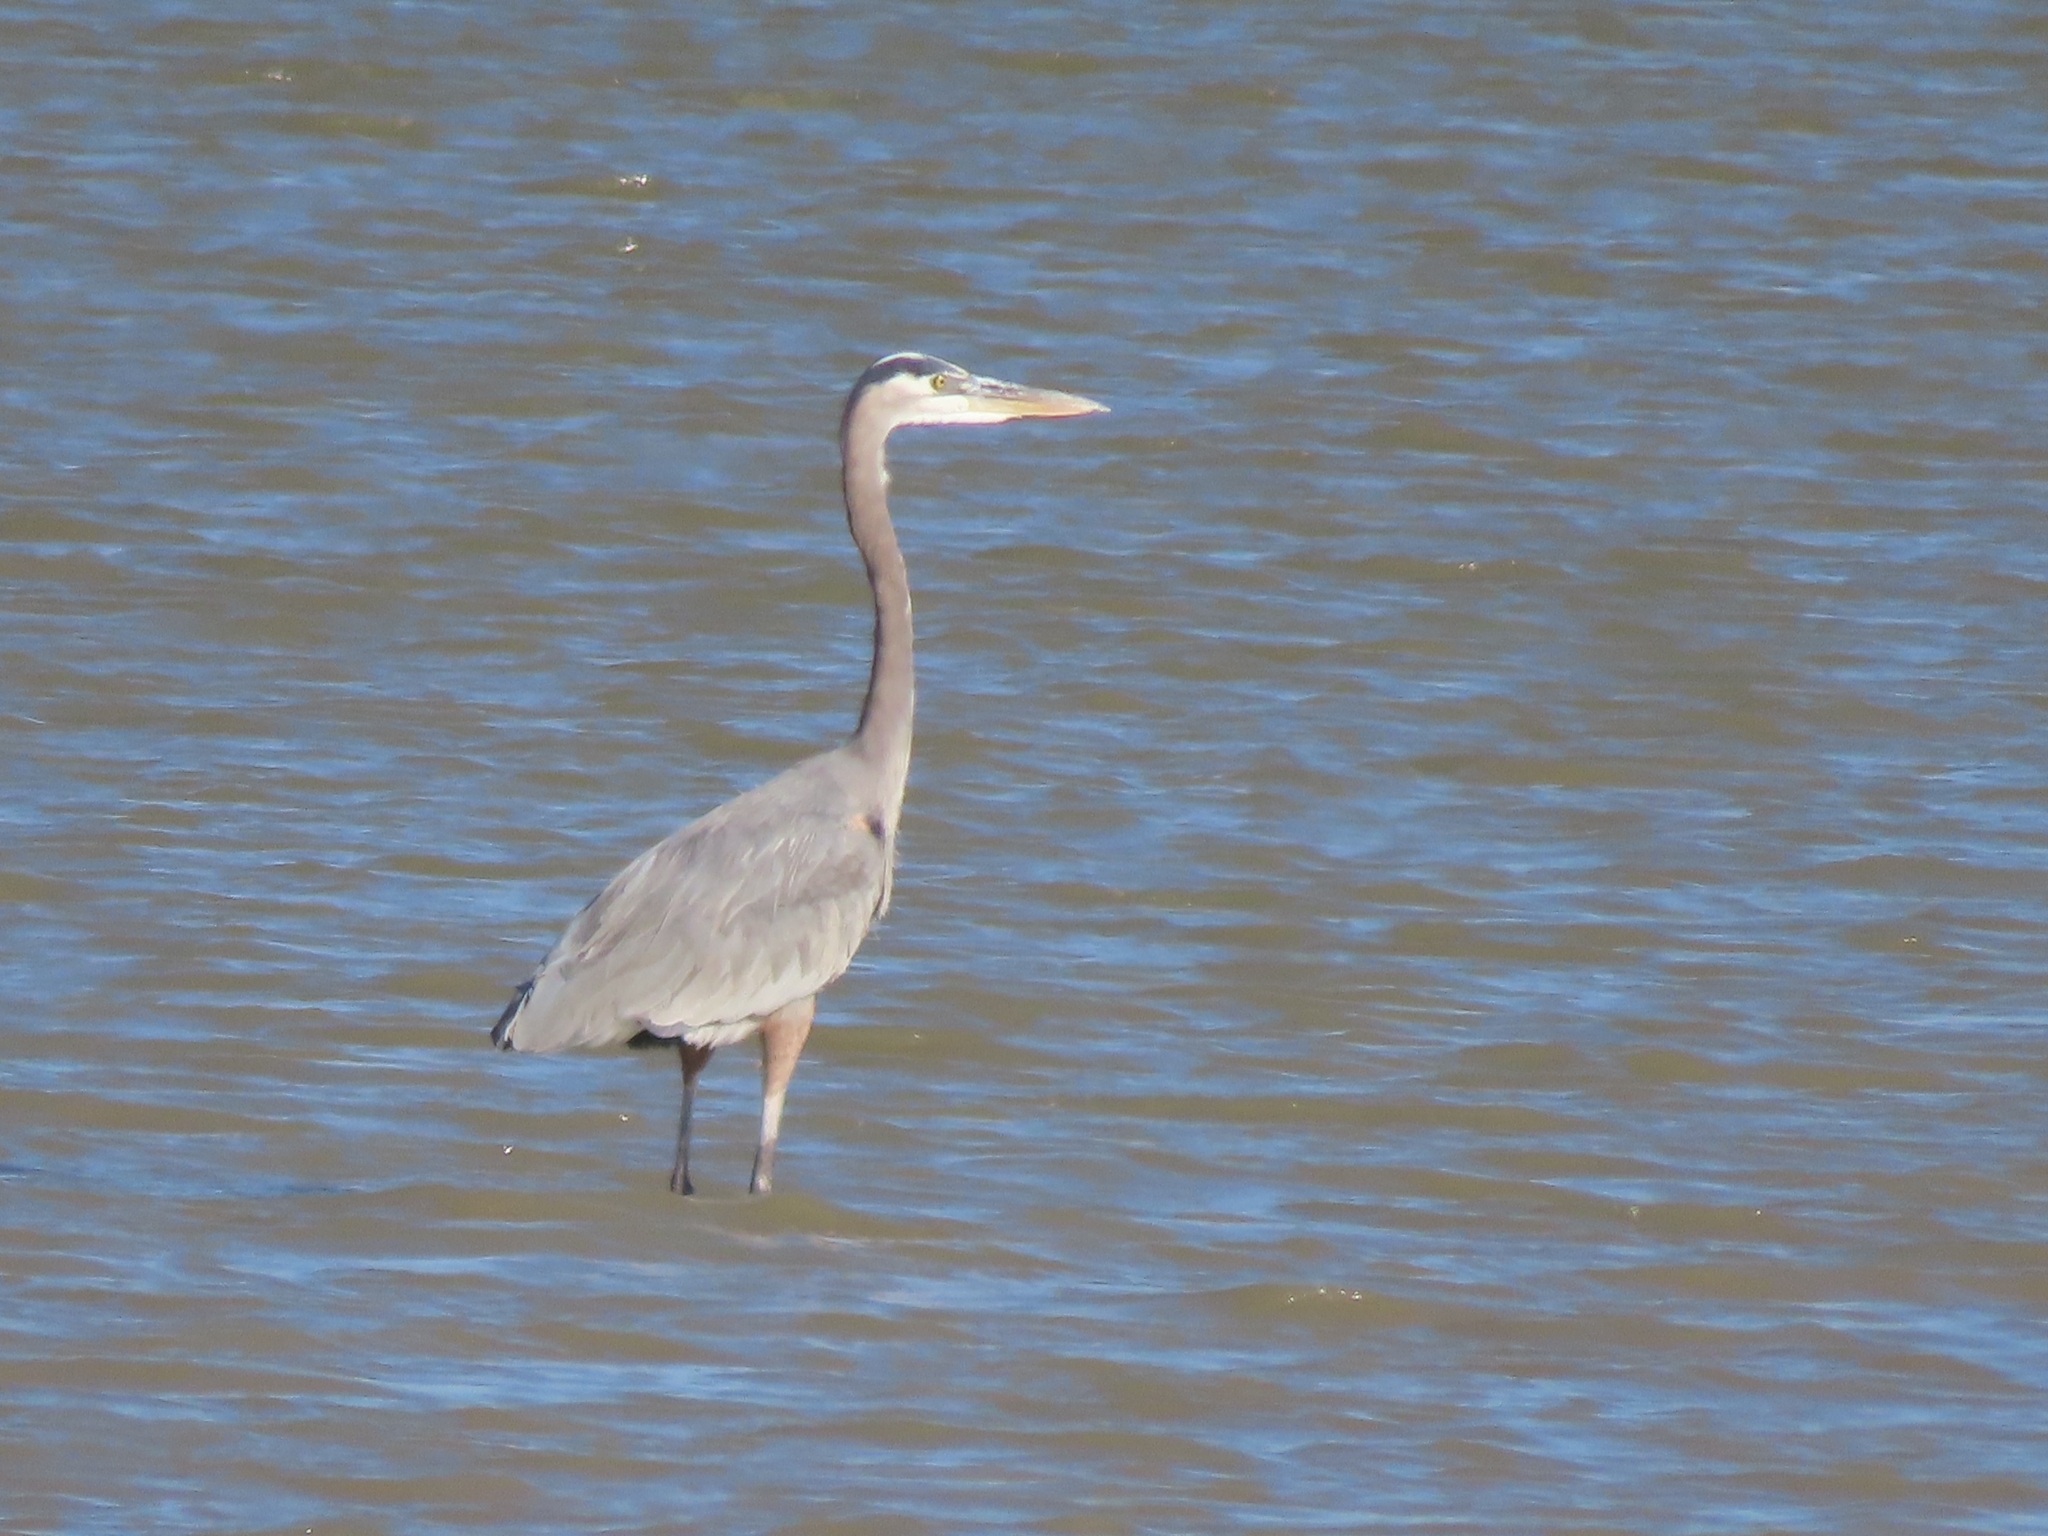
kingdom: Animalia
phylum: Chordata
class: Aves
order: Pelecaniformes
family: Ardeidae
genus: Ardea
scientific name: Ardea herodias
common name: Great blue heron
